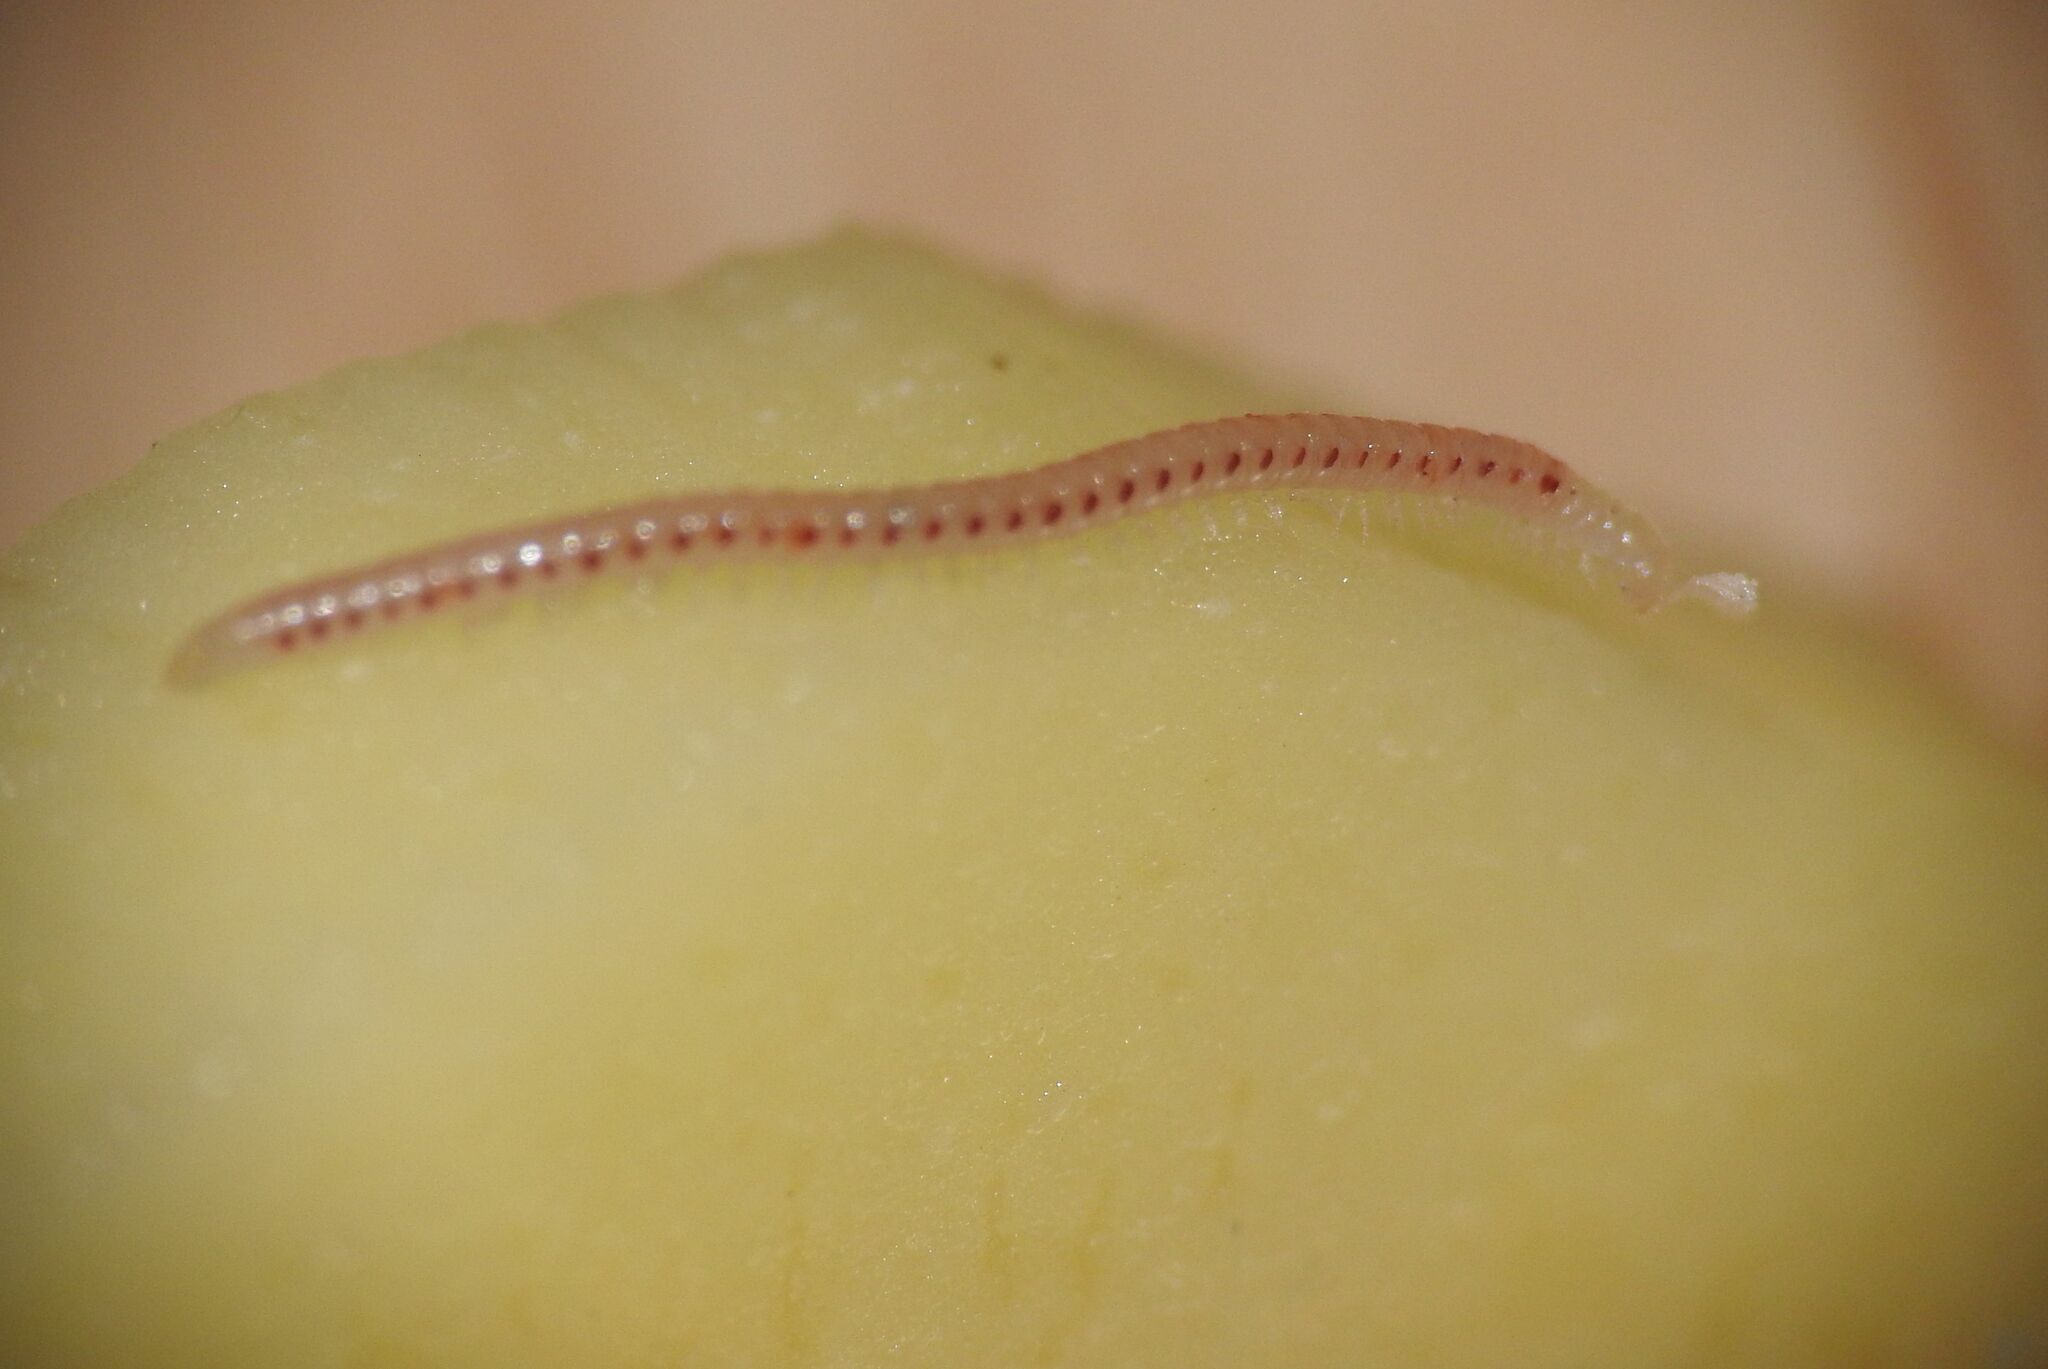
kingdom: Animalia
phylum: Arthropoda
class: Diplopoda
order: Julida
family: Blaniulidae
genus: Blaniulus
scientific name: Blaniulus guttulatus
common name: Spotted snake millipede
